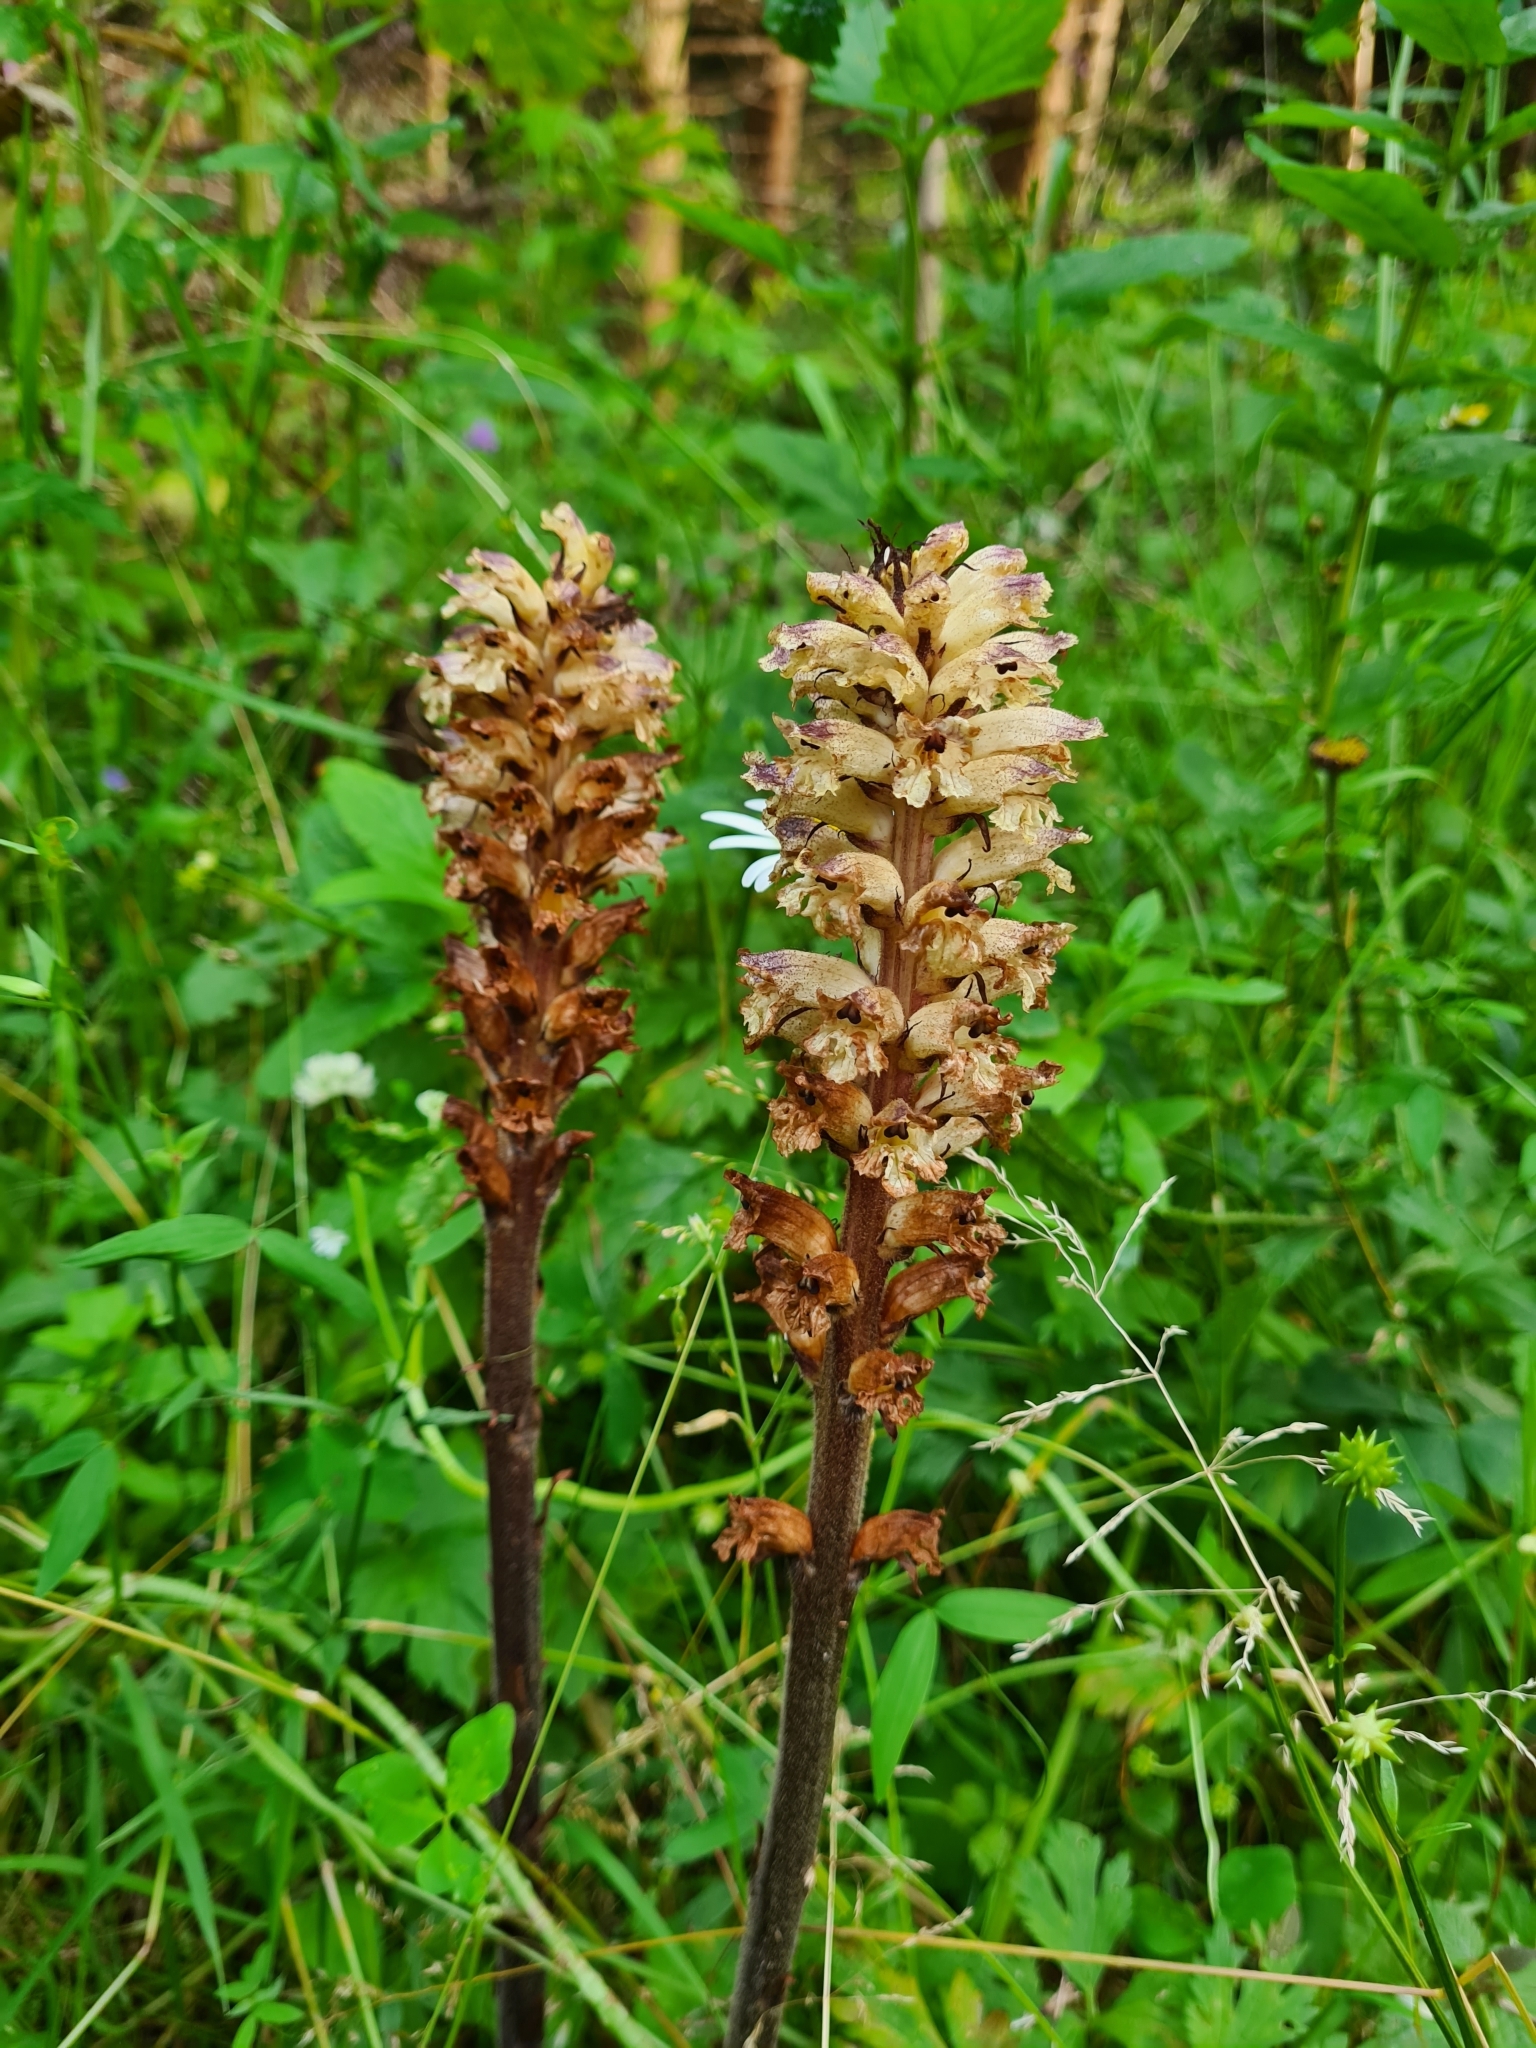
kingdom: Plantae
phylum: Tracheophyta
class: Magnoliopsida
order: Lamiales
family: Orobanchaceae
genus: Orobanche
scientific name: Orobanche reticulata
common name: Thistle broomrape
